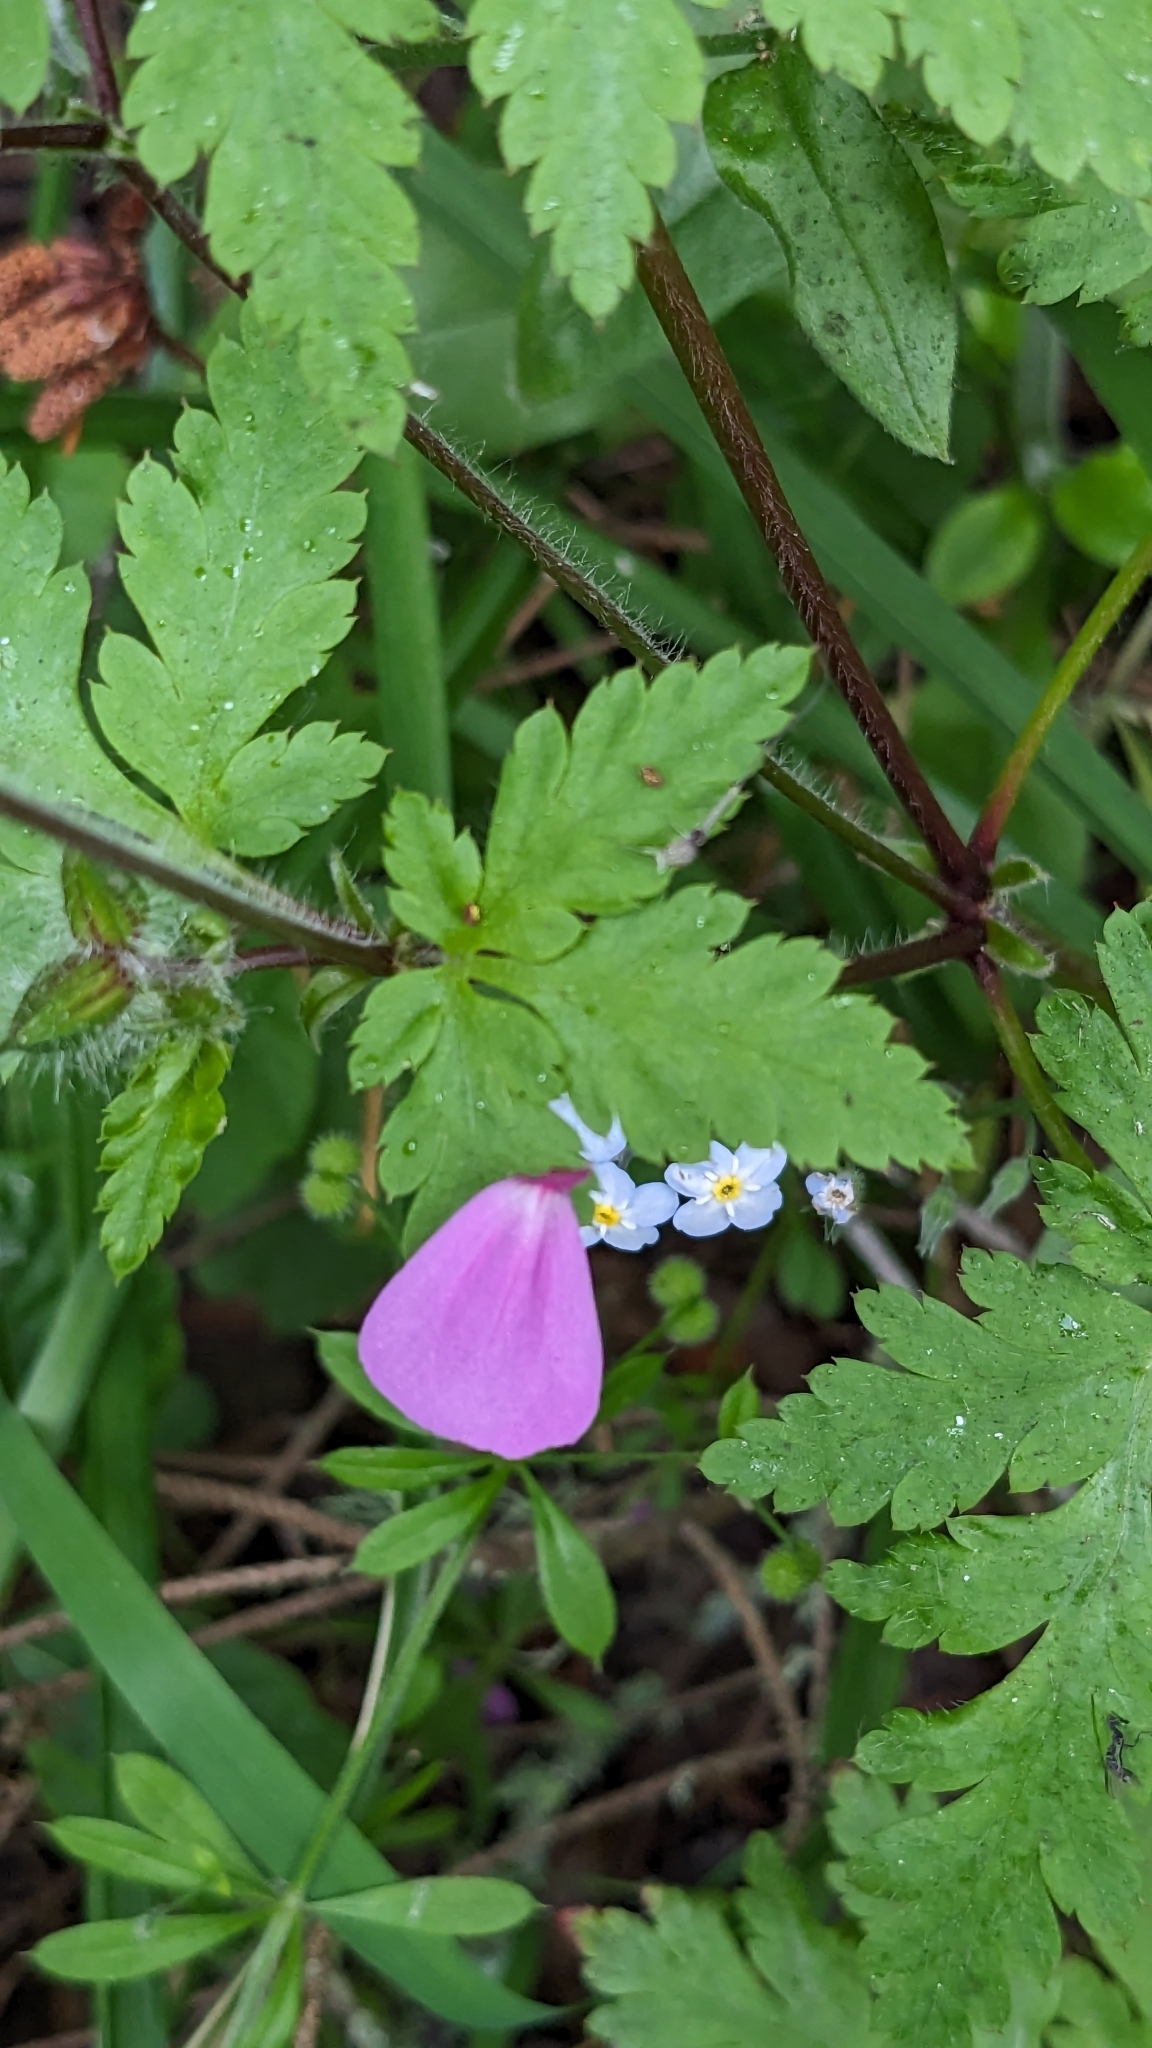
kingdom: Plantae
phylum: Tracheophyta
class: Magnoliopsida
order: Geraniales
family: Geraniaceae
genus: Geranium
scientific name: Geranium yeoi
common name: Greater herb robert
